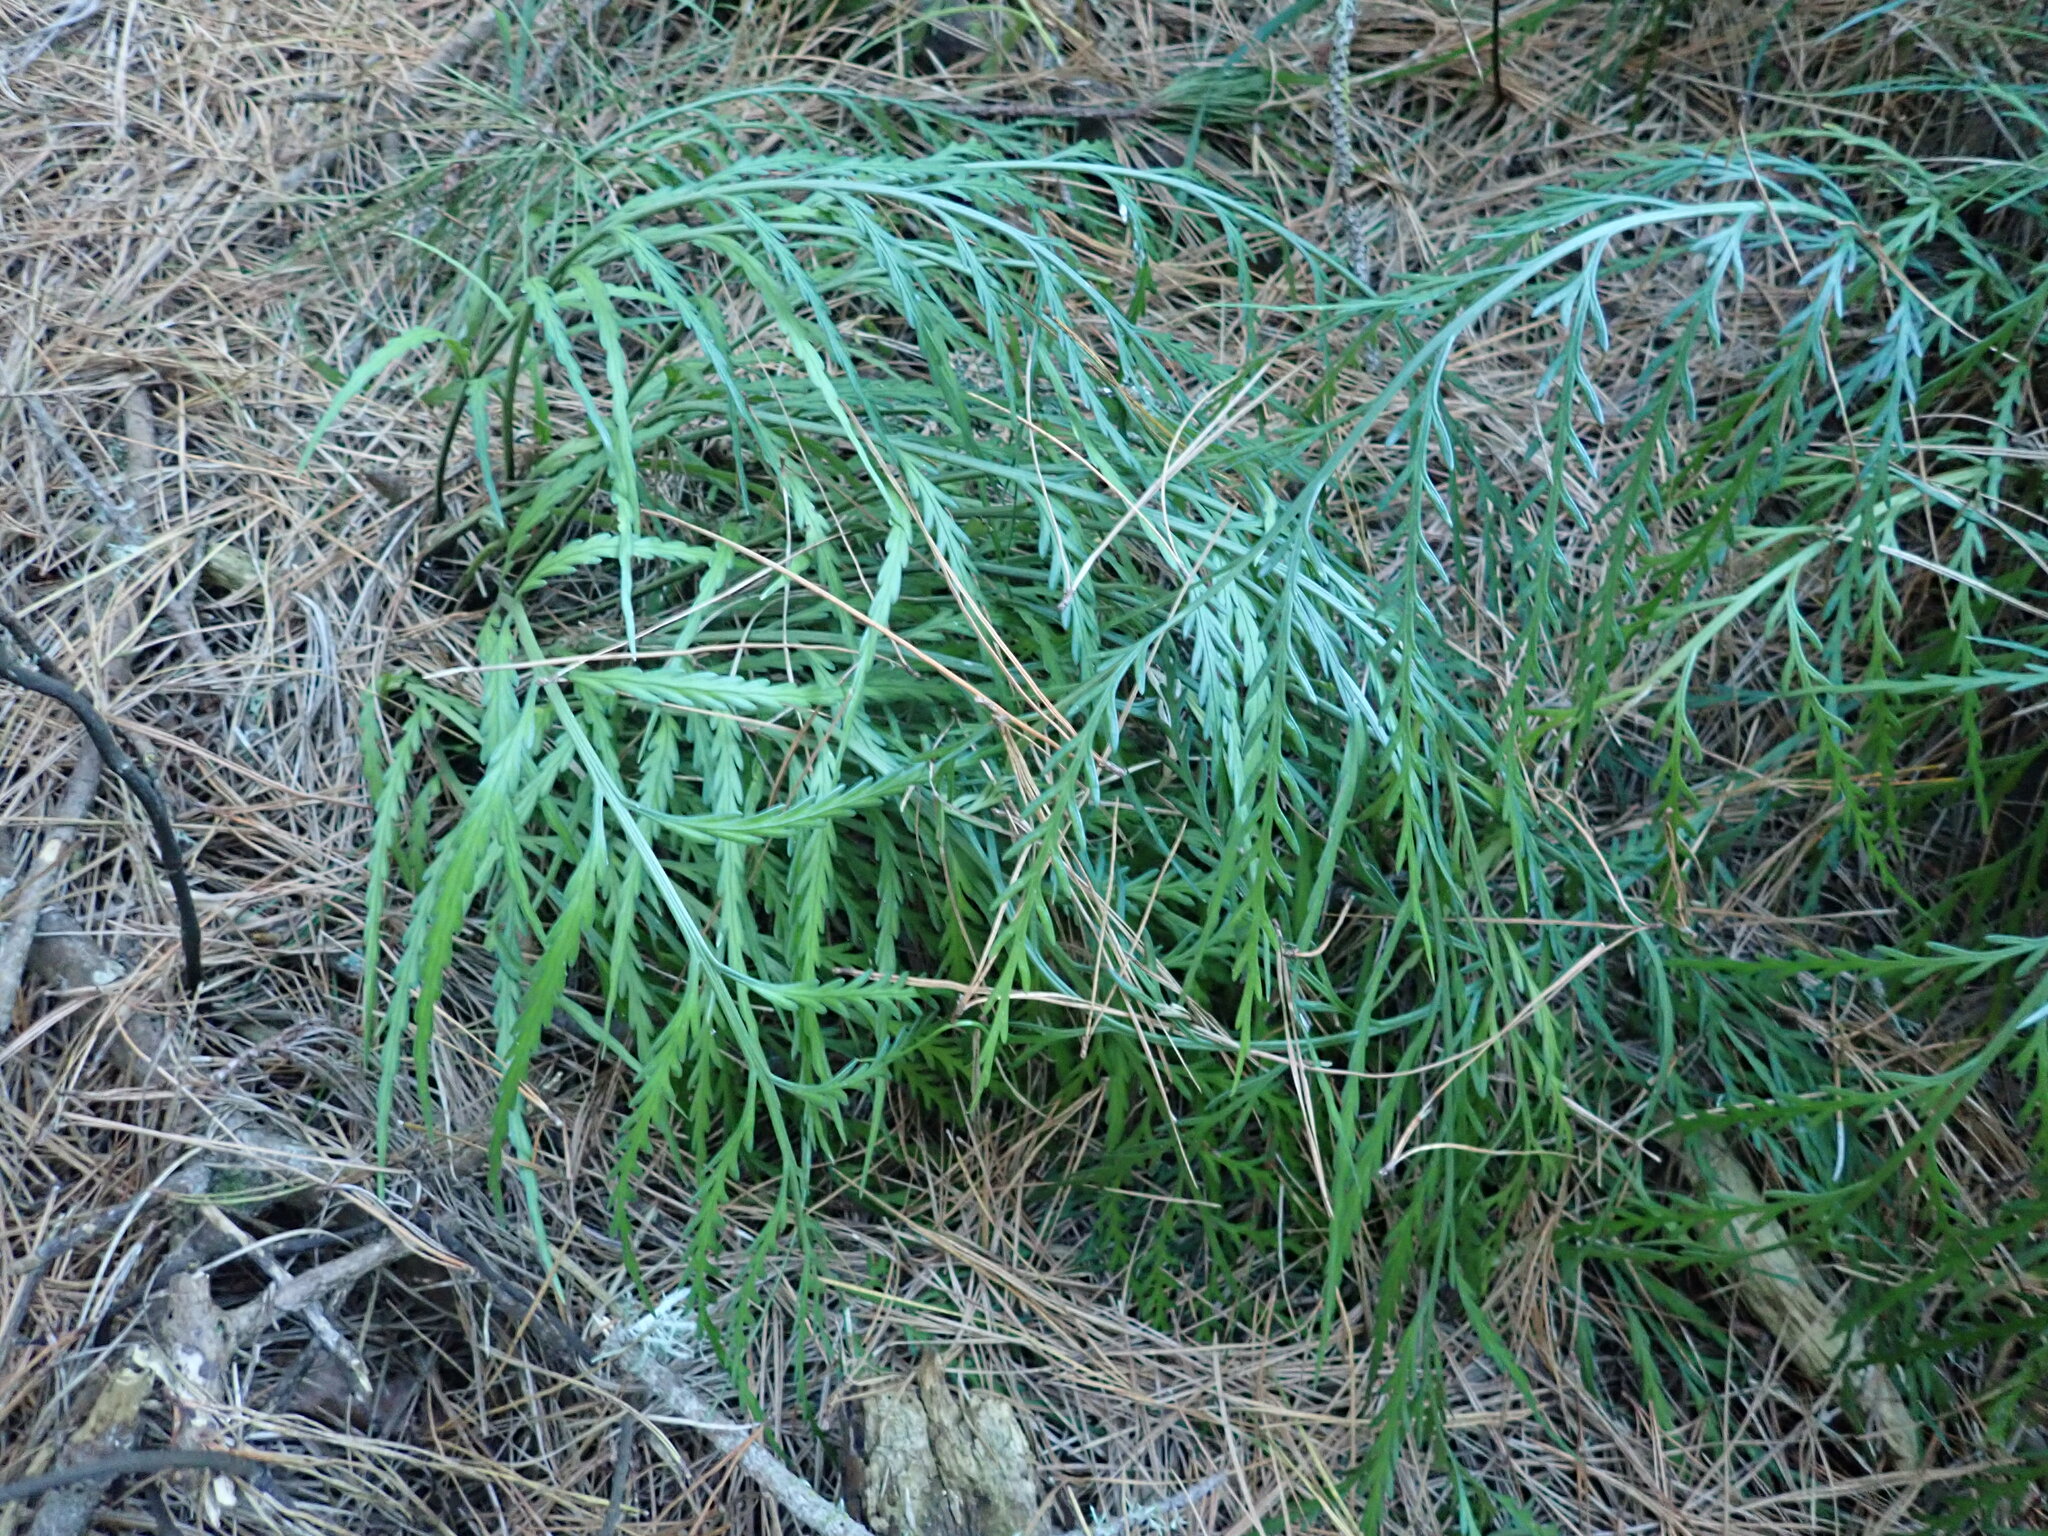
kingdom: Plantae
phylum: Tracheophyta
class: Polypodiopsida
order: Polypodiales
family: Aspleniaceae
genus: Asplenium
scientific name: Asplenium flaccidum
